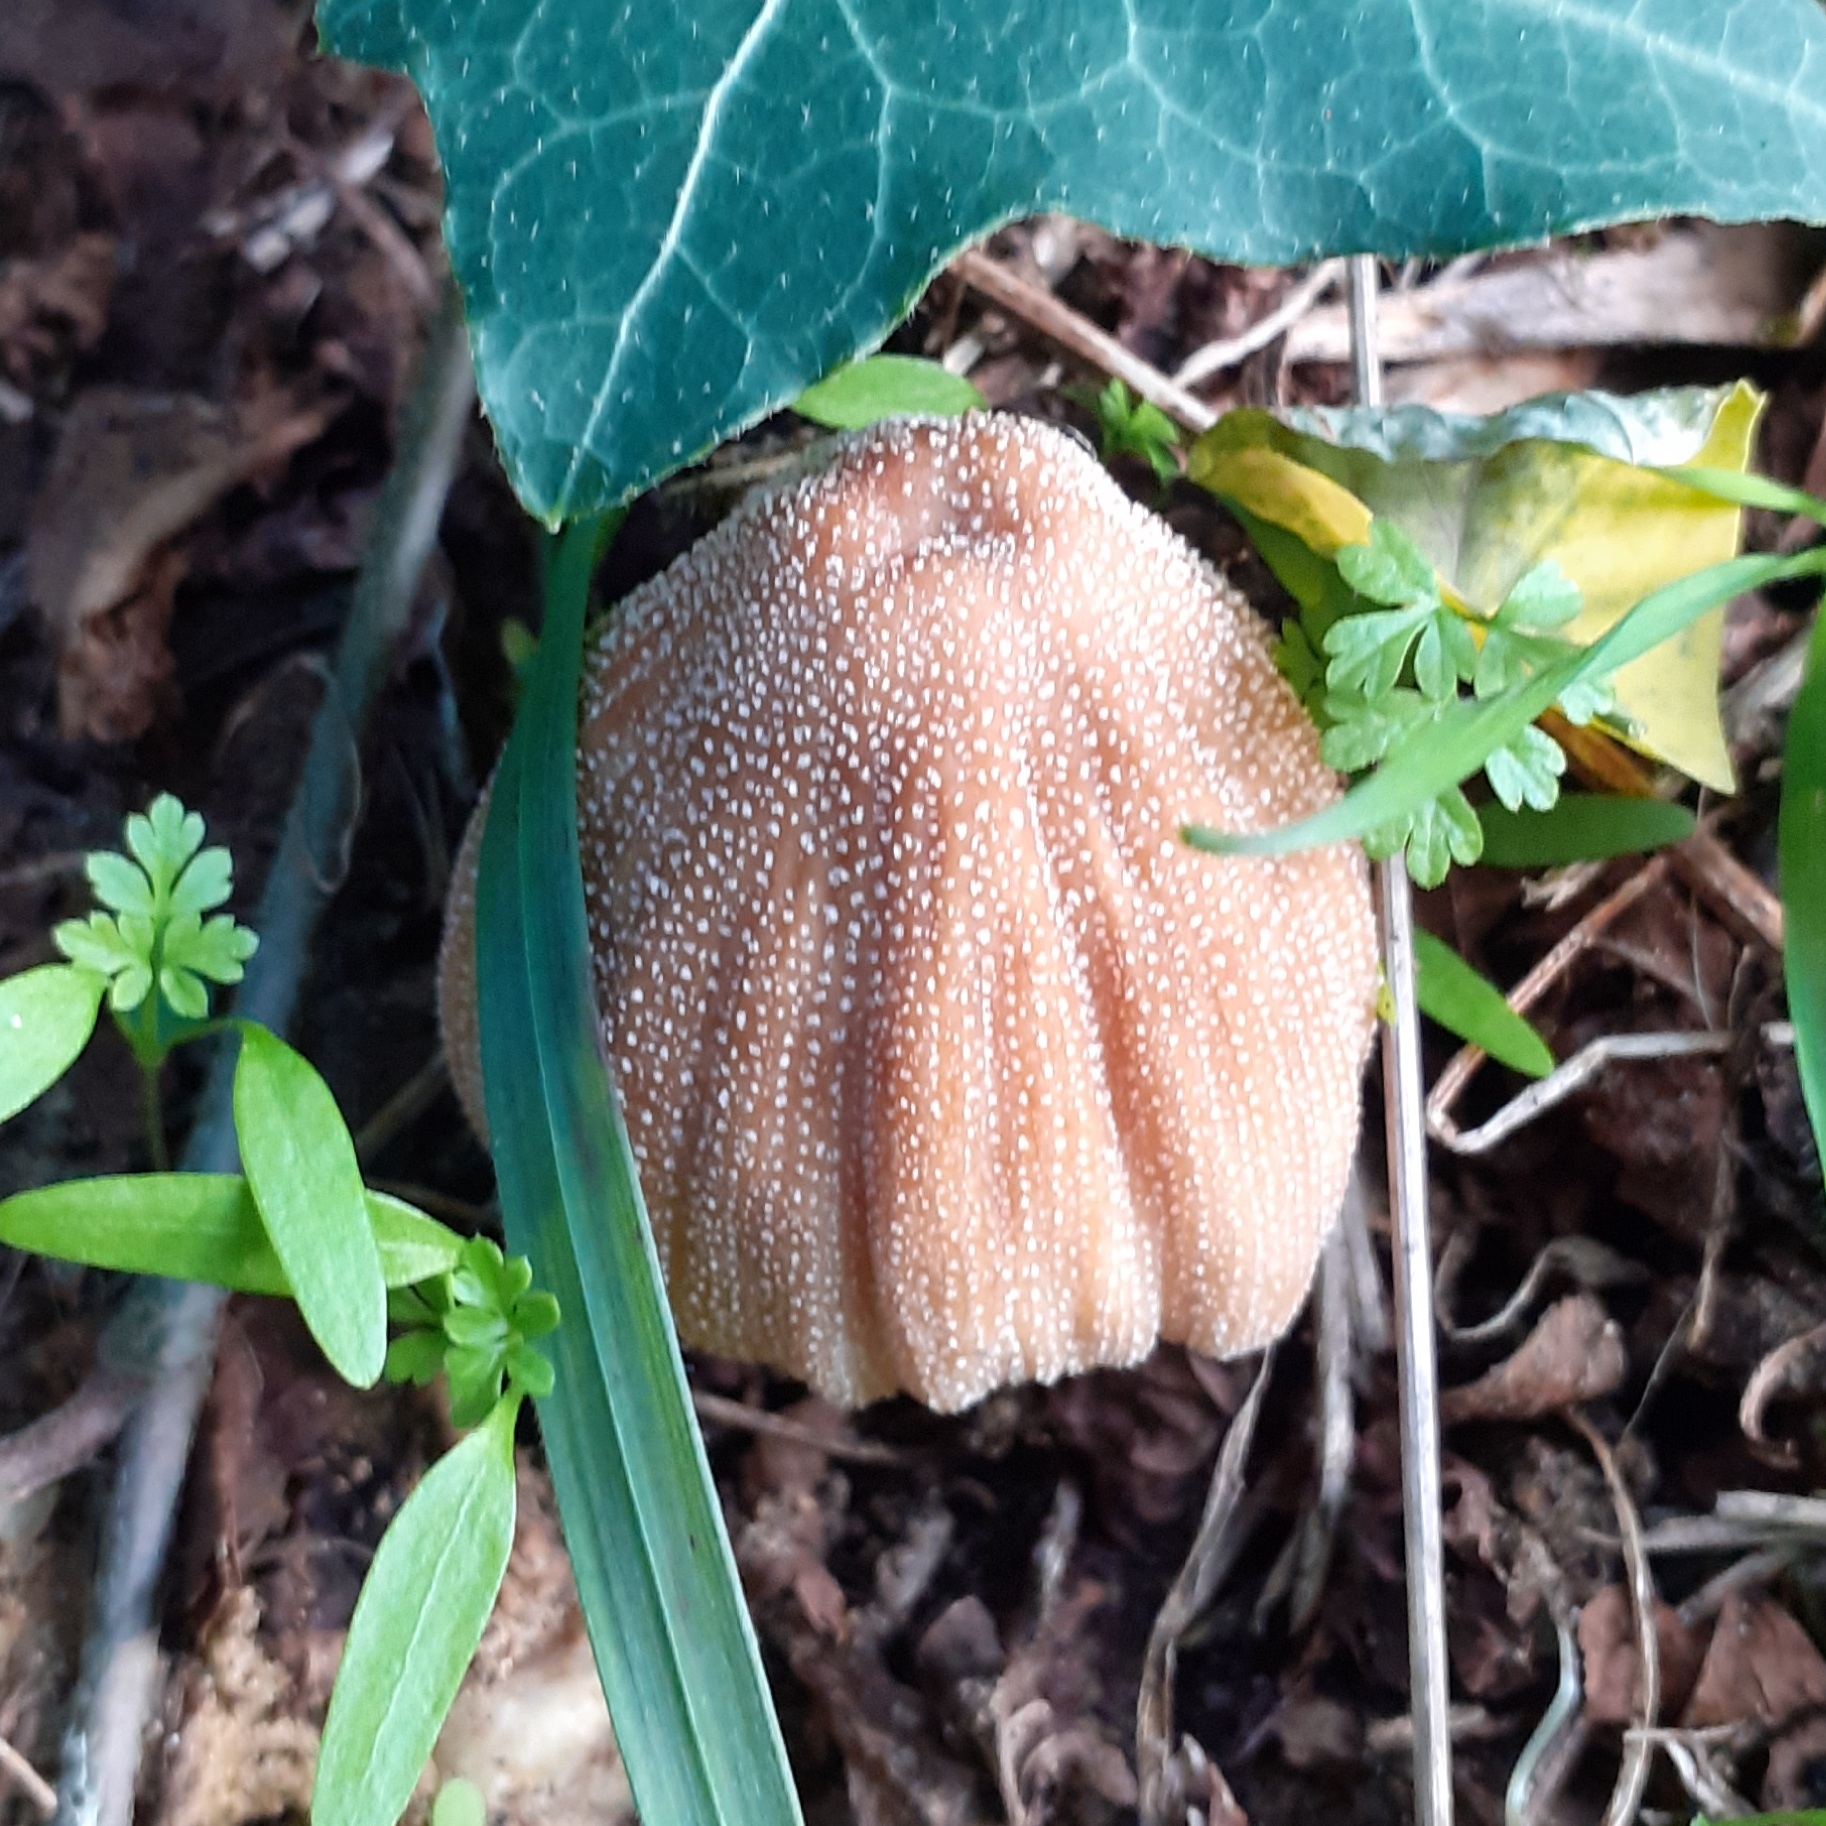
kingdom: Fungi
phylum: Basidiomycota
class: Agaricomycetes
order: Agaricales
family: Psathyrellaceae
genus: Coprinellus
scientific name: Coprinellus micaceus
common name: Glistening ink-cap
